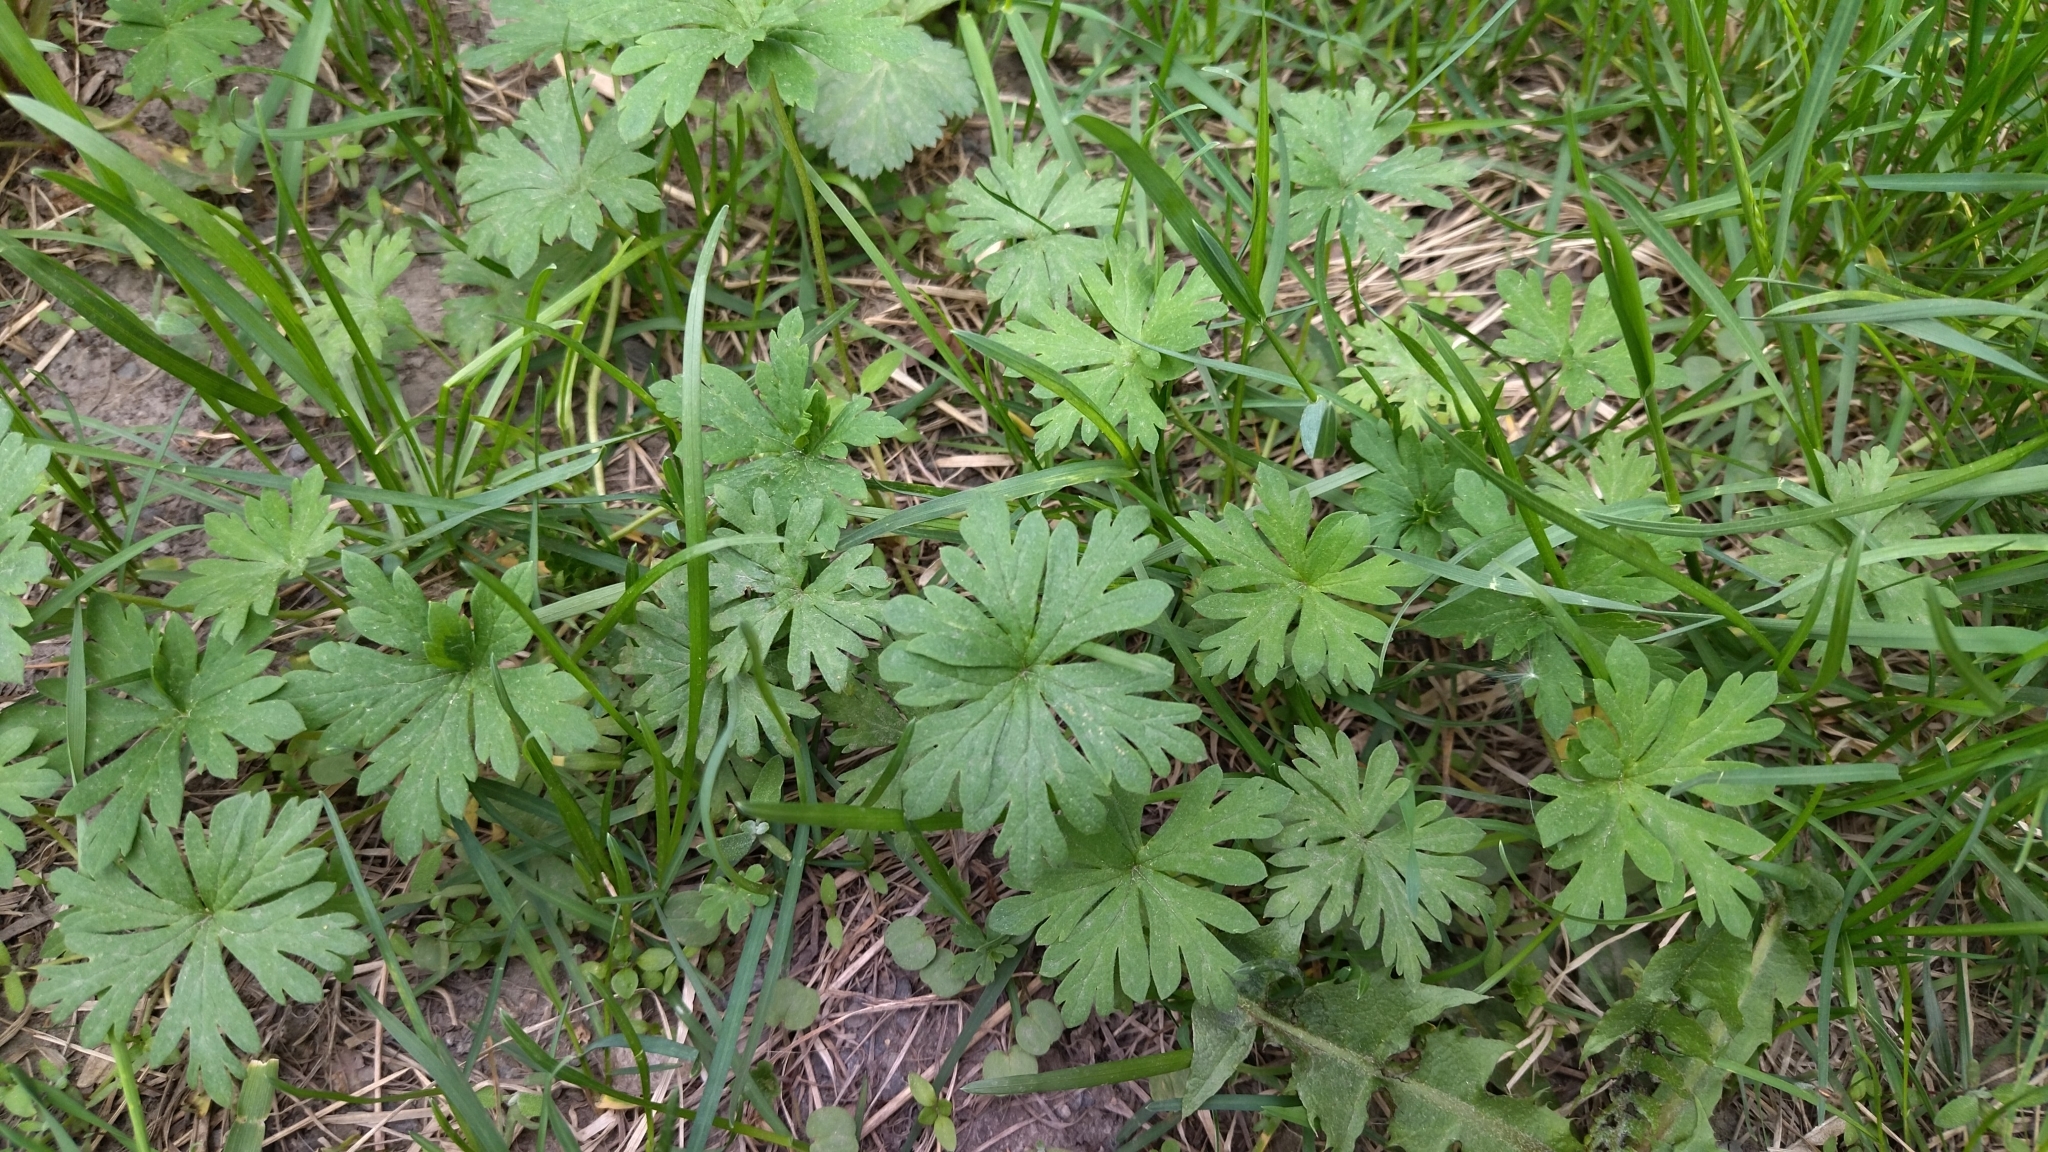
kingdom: Plantae
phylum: Tracheophyta
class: Magnoliopsida
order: Geraniales
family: Geraniaceae
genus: Geranium
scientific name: Geranium sibiricum
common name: Siberian crane's-bill
